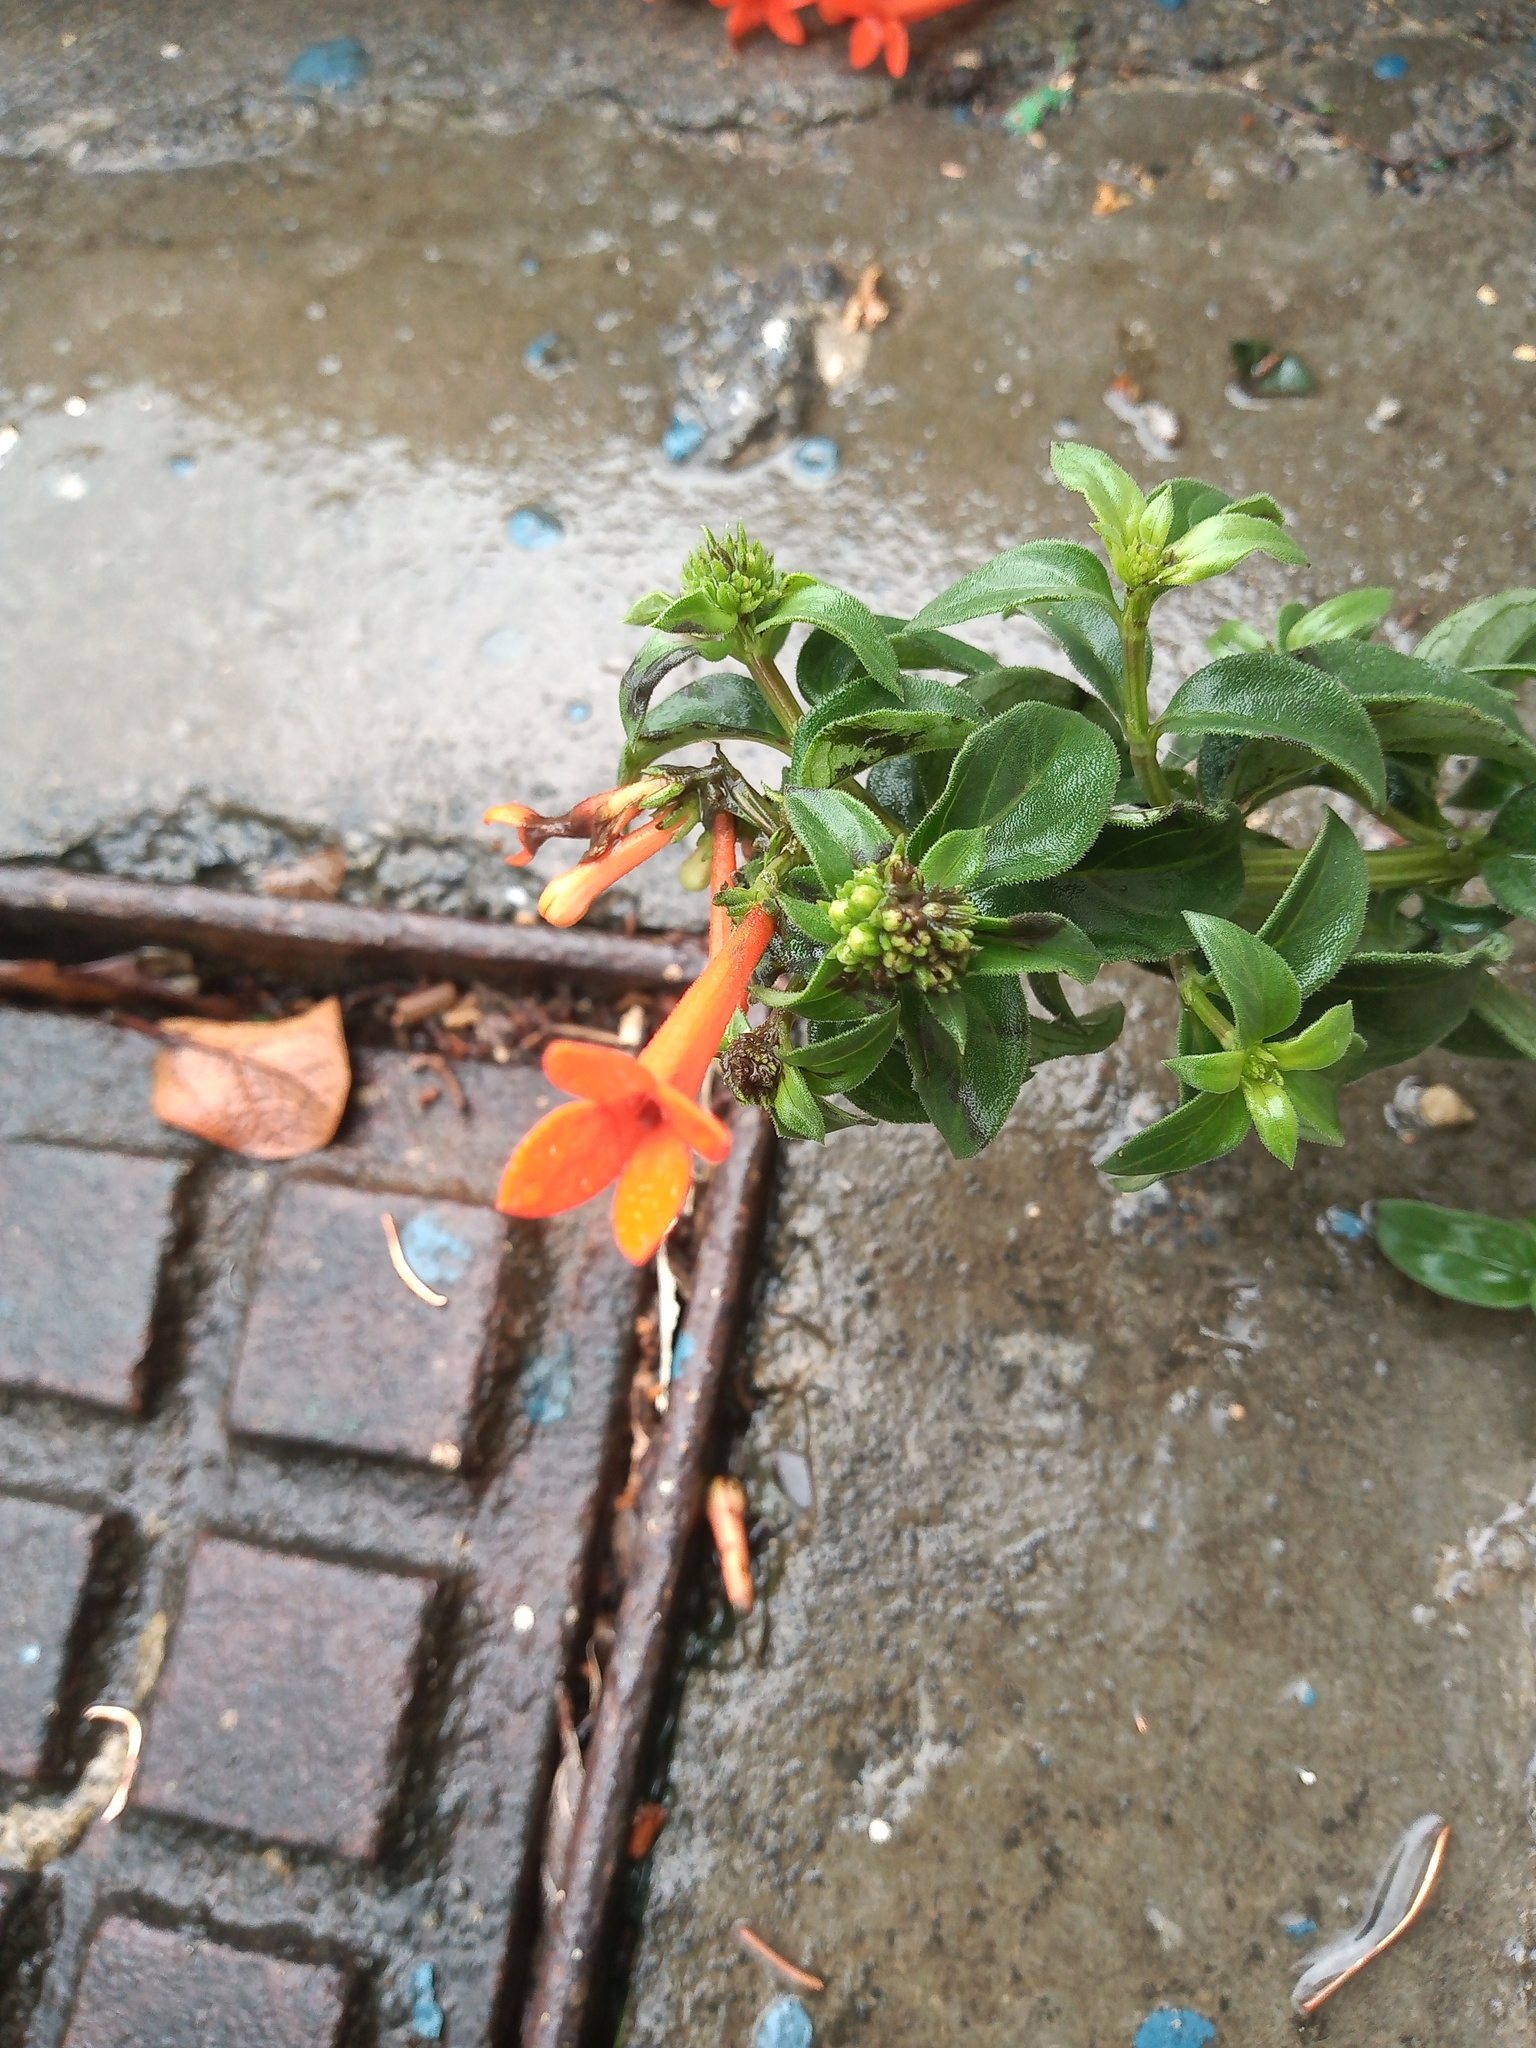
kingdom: Plantae
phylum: Tracheophyta
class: Magnoliopsida
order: Gentianales
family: Rubiaceae
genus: Bouvardia
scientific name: Bouvardia ternifolia
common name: Scarlet bouvardia
